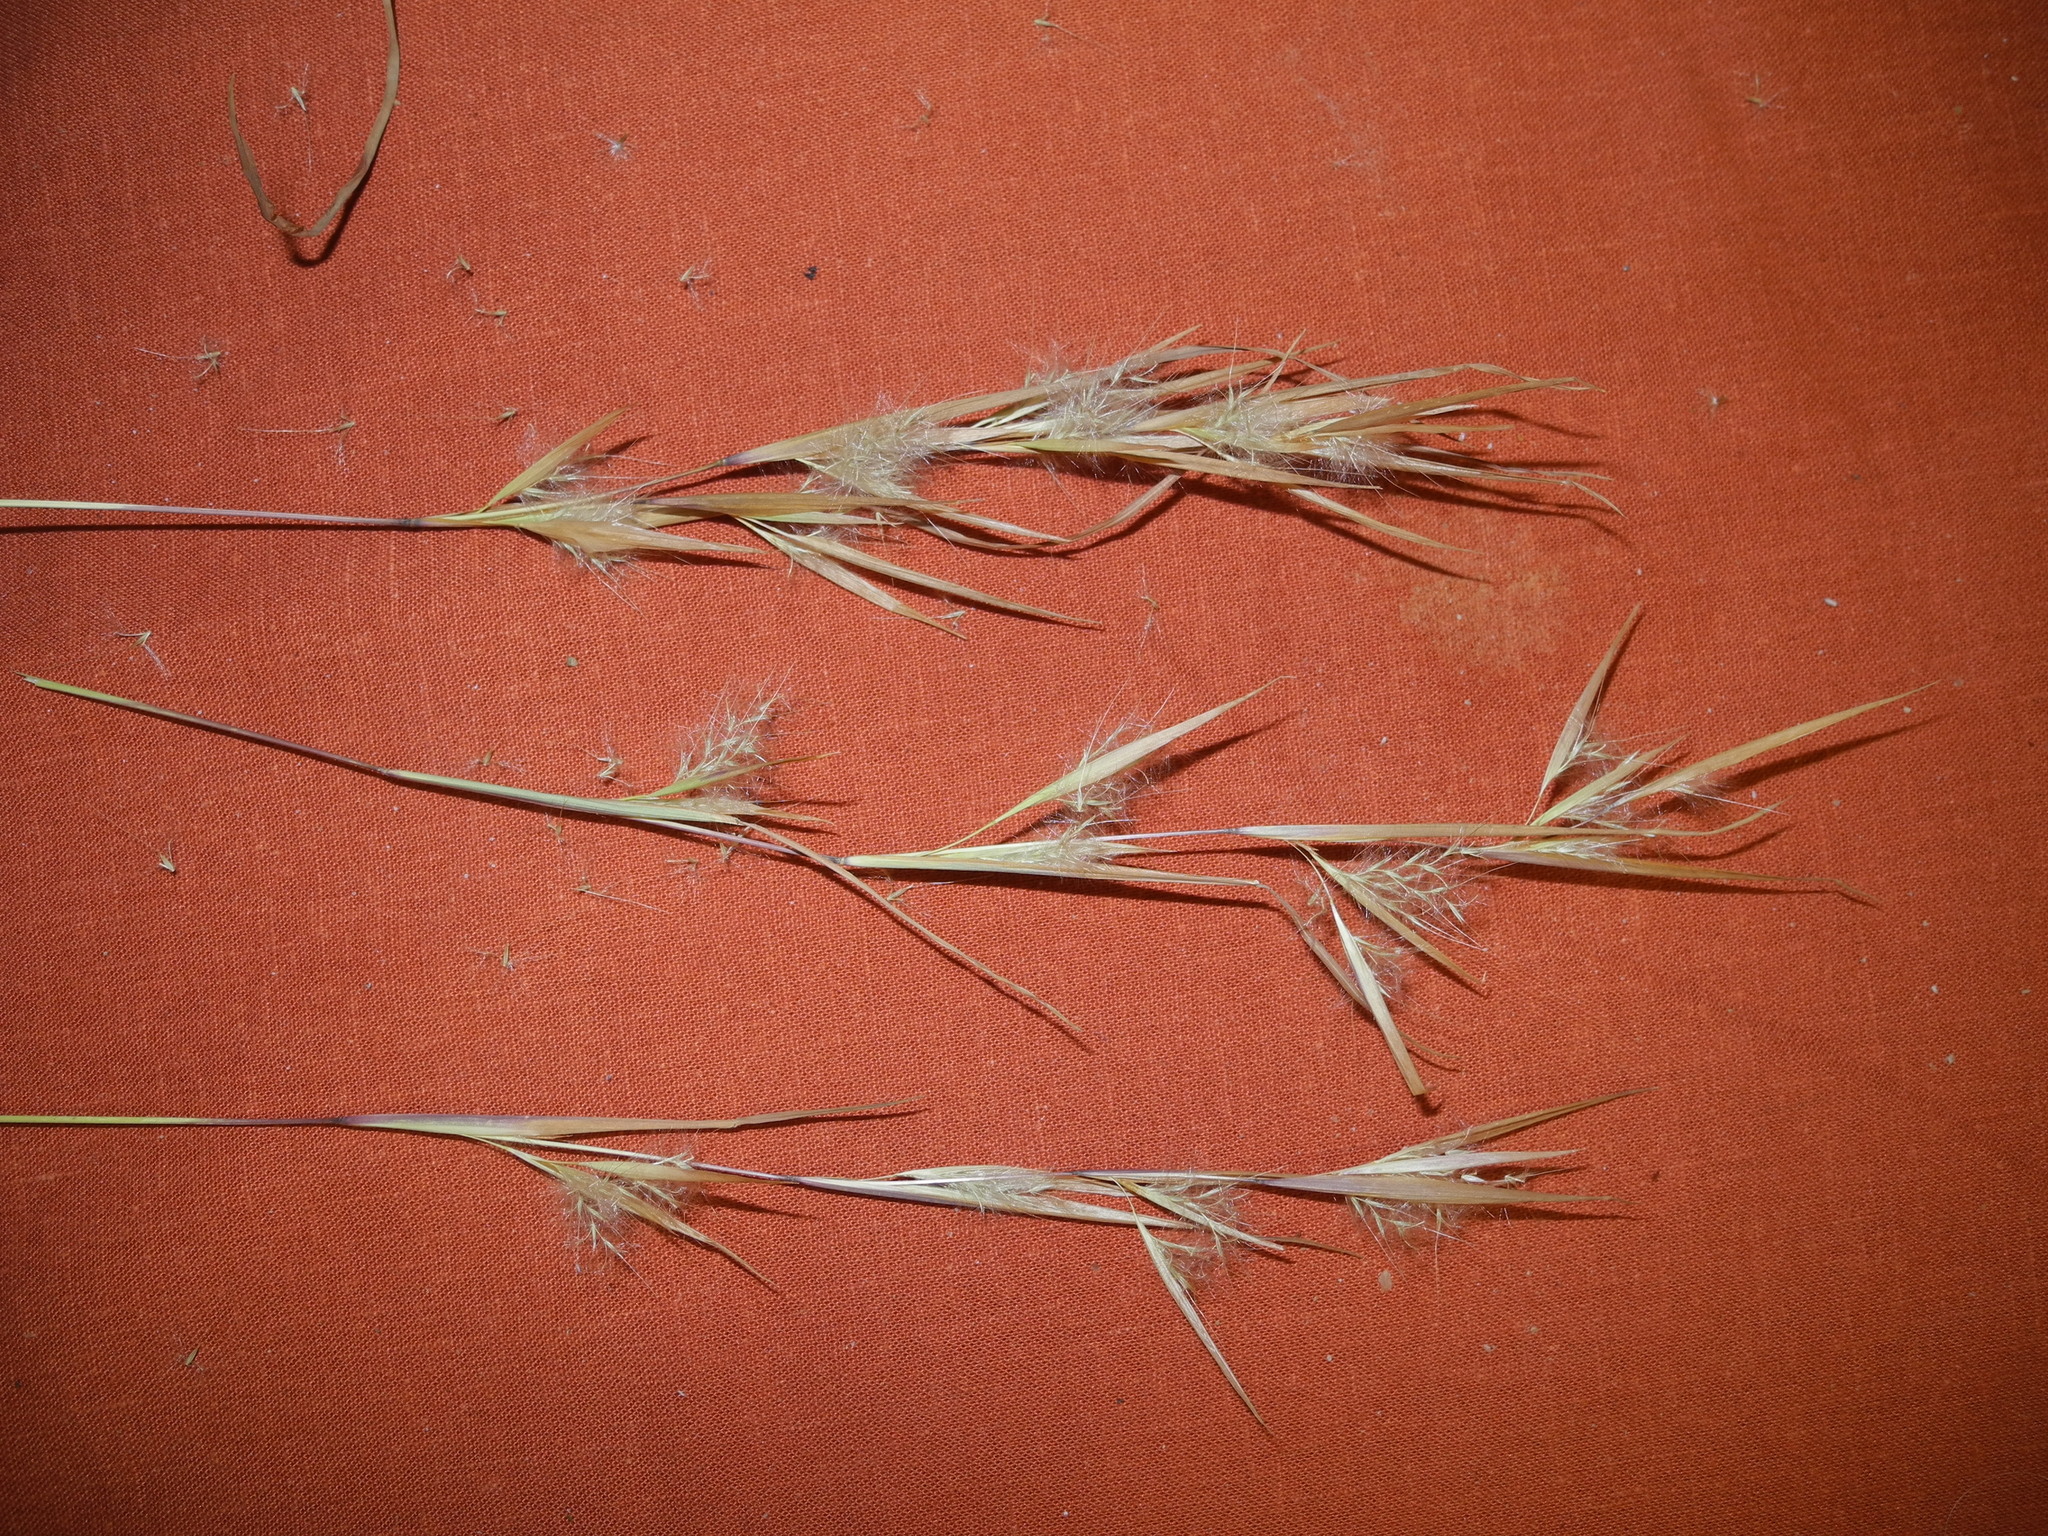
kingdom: Plantae
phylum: Tracheophyta
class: Liliopsida
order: Poales
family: Poaceae
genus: Andropogon
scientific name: Andropogon virginicus
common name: Broomsedge bluestem
